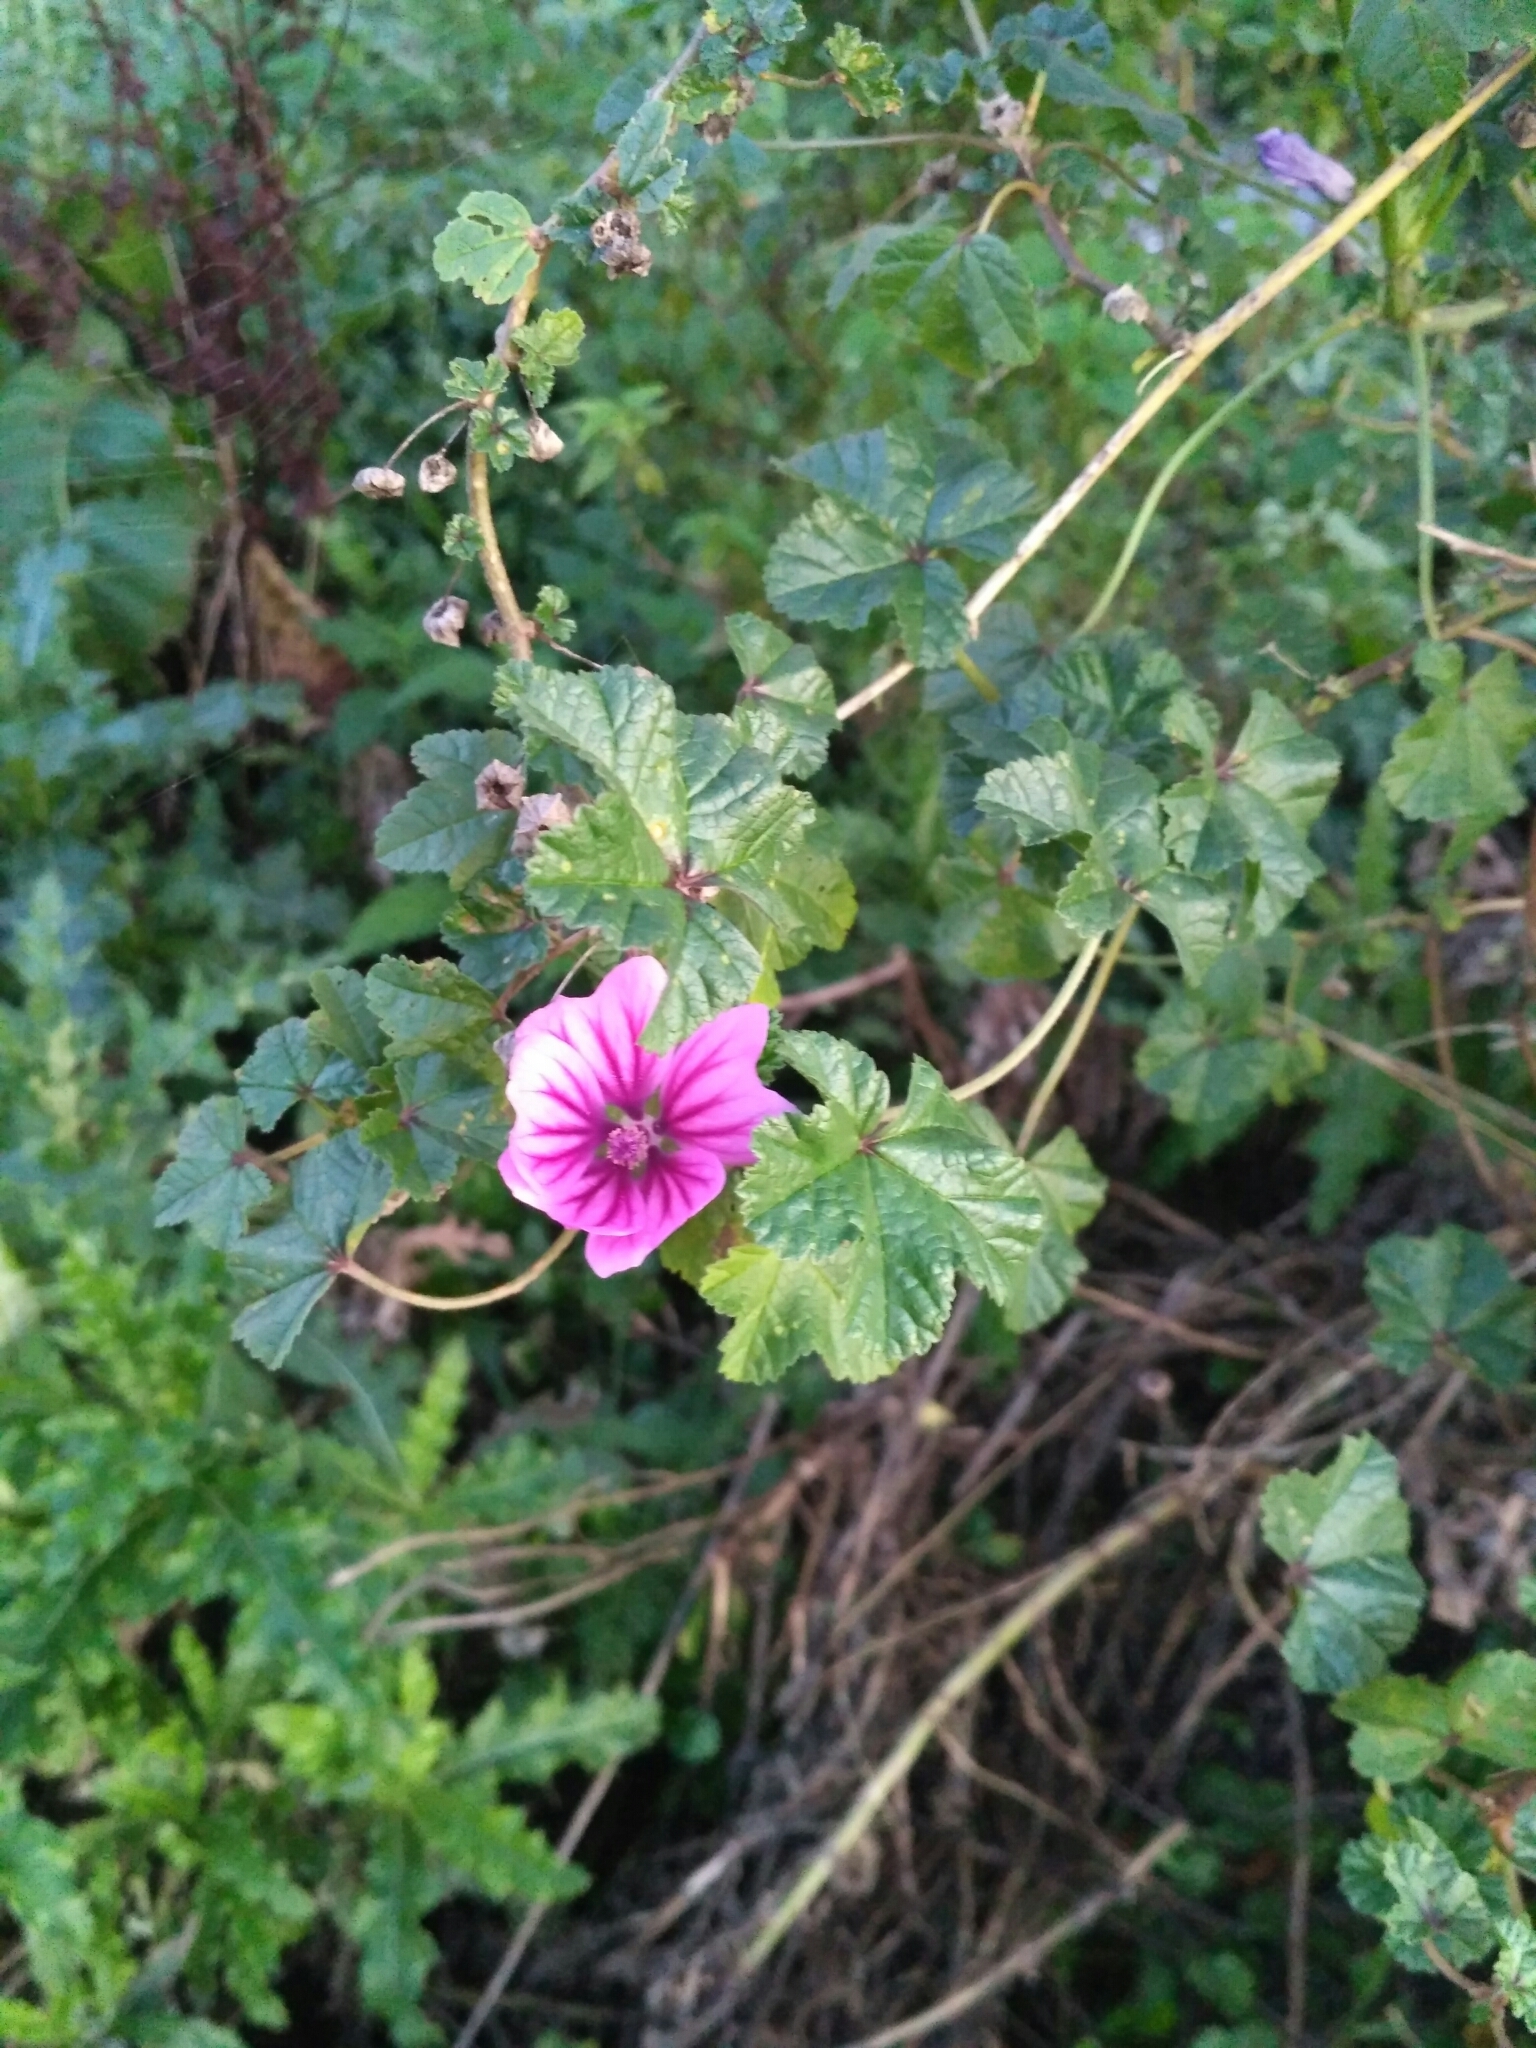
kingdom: Plantae
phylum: Tracheophyta
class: Magnoliopsida
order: Malvales
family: Malvaceae
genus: Malva
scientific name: Malva sylvestris
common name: Common mallow
